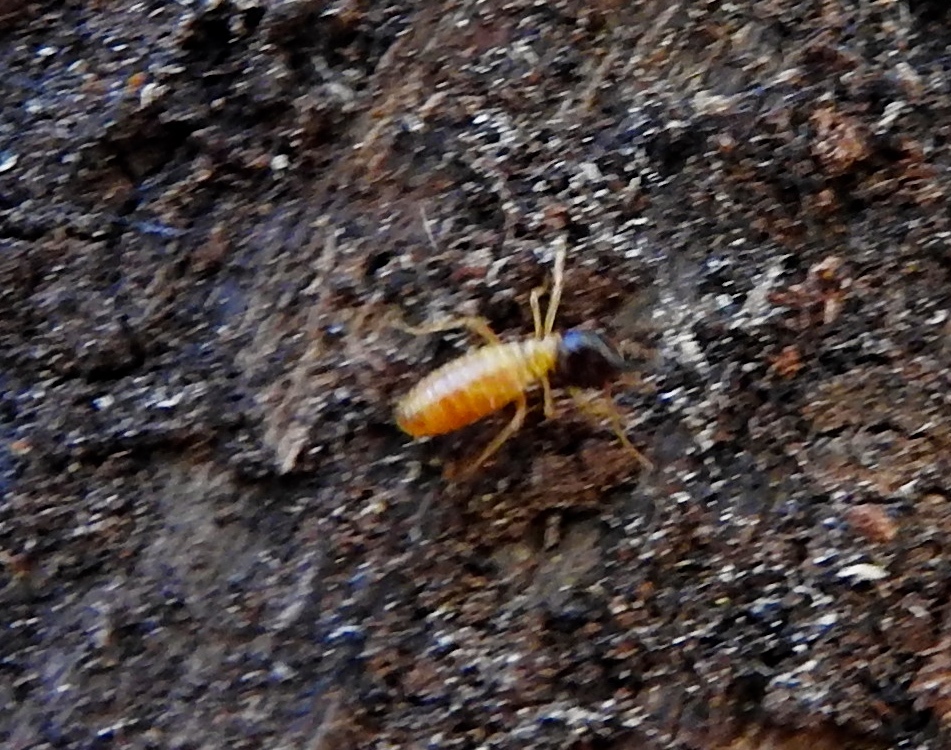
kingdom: Animalia
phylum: Arthropoda
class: Insecta
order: Blattodea
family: Termitidae
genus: Nasutitermes
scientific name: Nasutitermes
